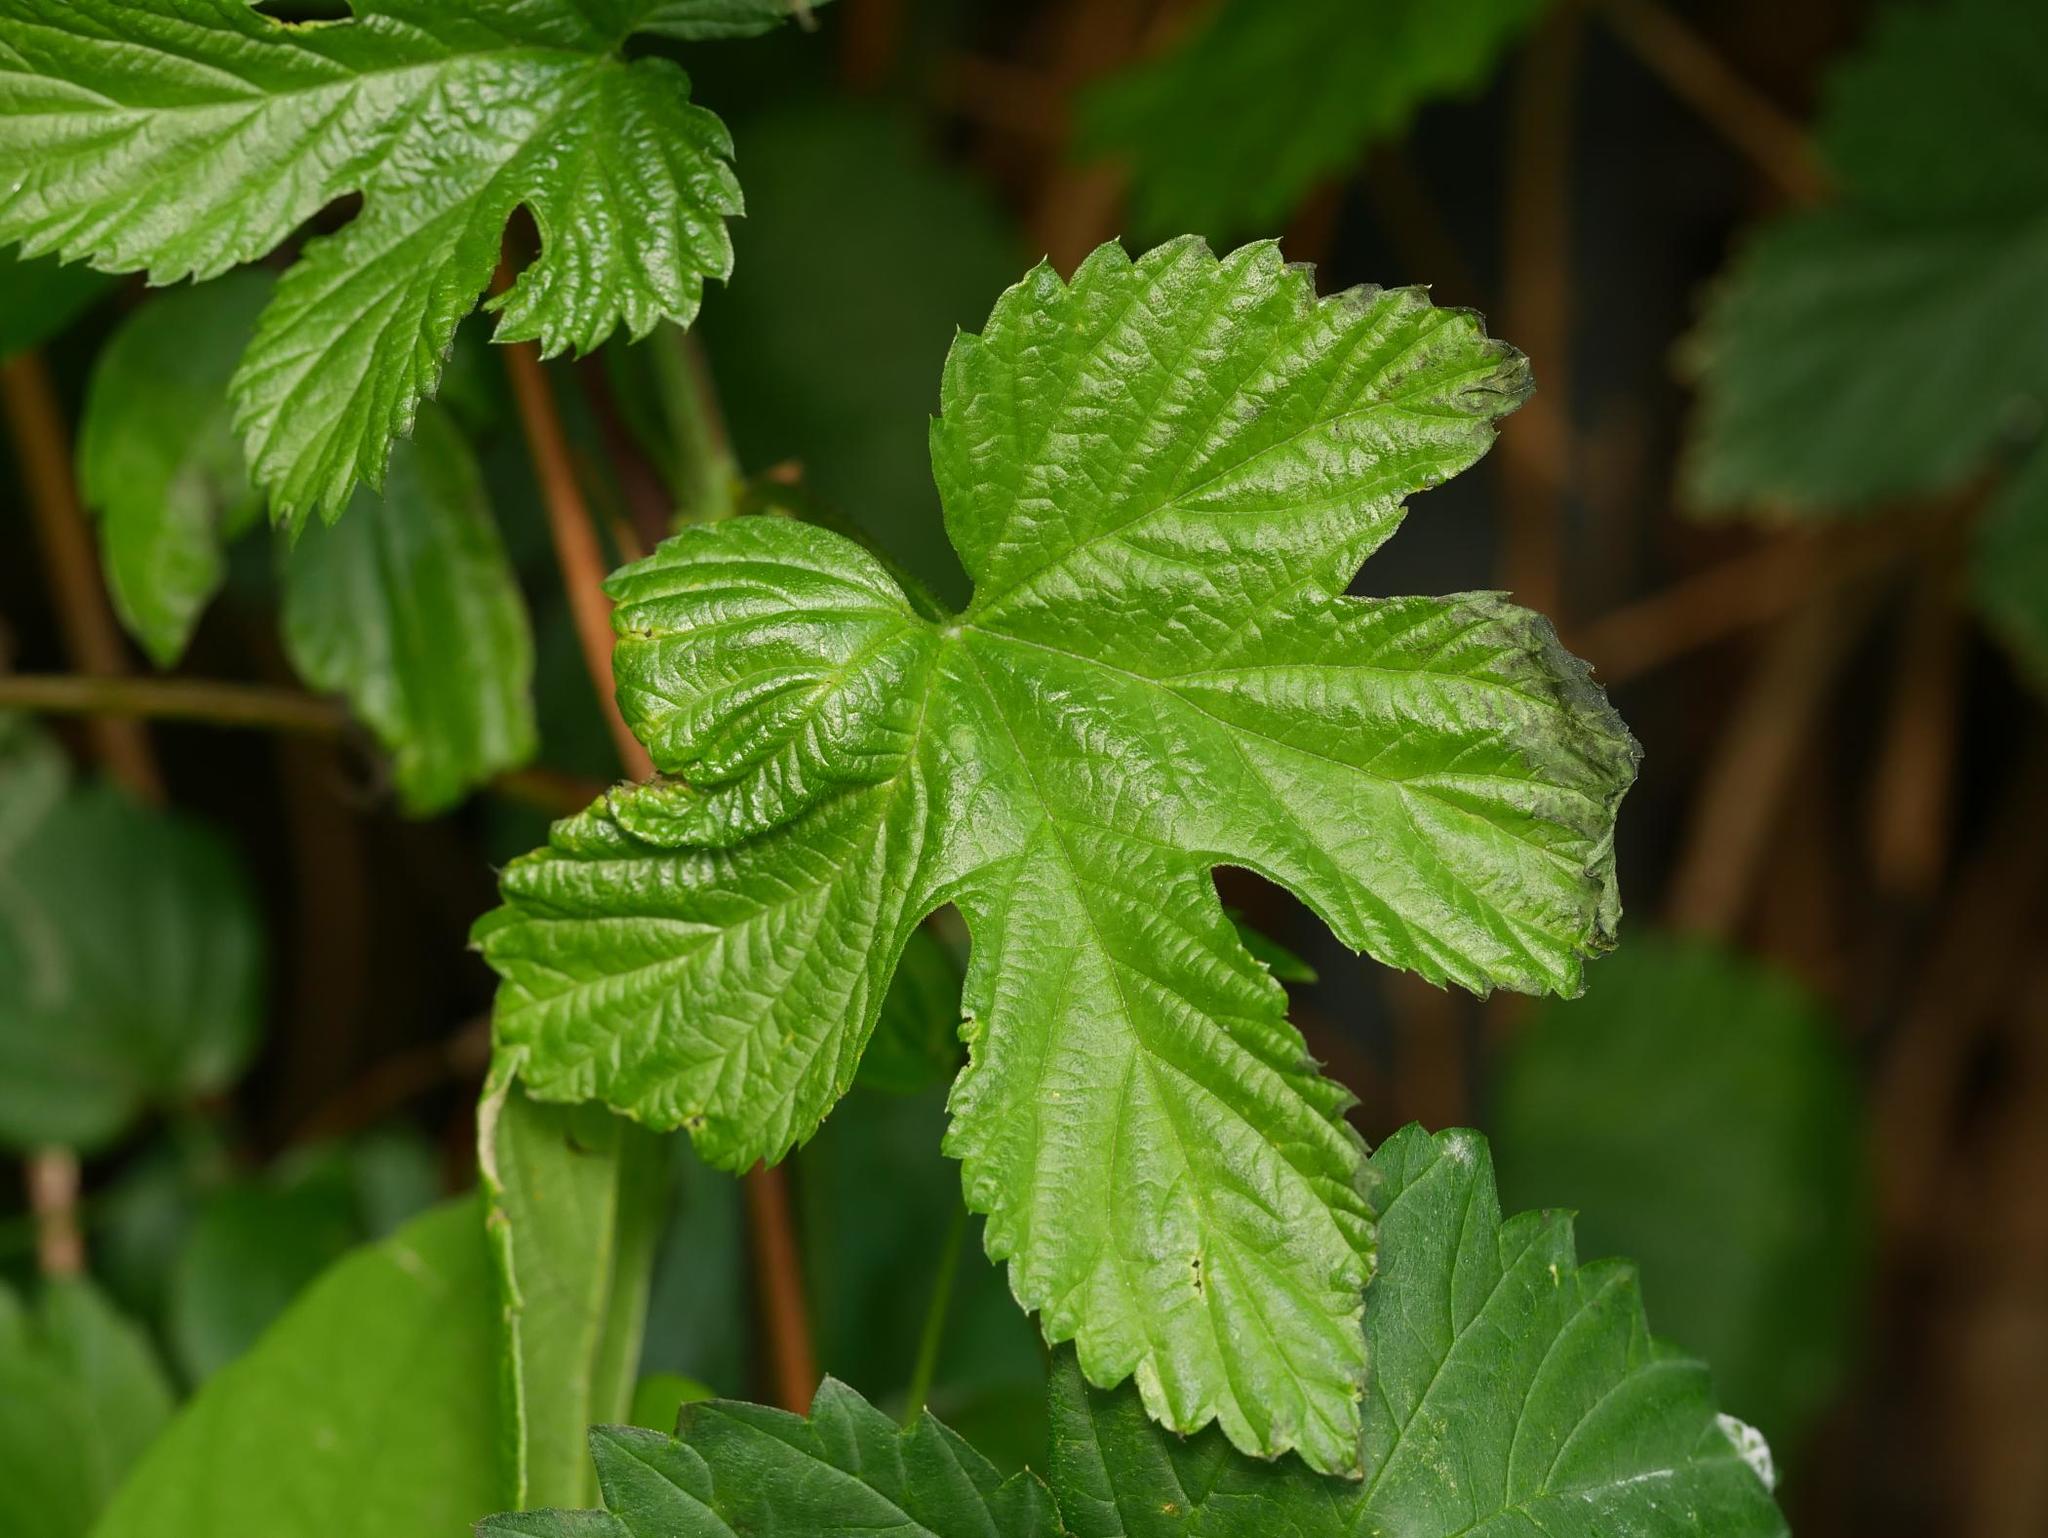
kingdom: Plantae
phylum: Tracheophyta
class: Magnoliopsida
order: Rosales
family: Cannabaceae
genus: Humulus
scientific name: Humulus lupulus
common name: Hop
